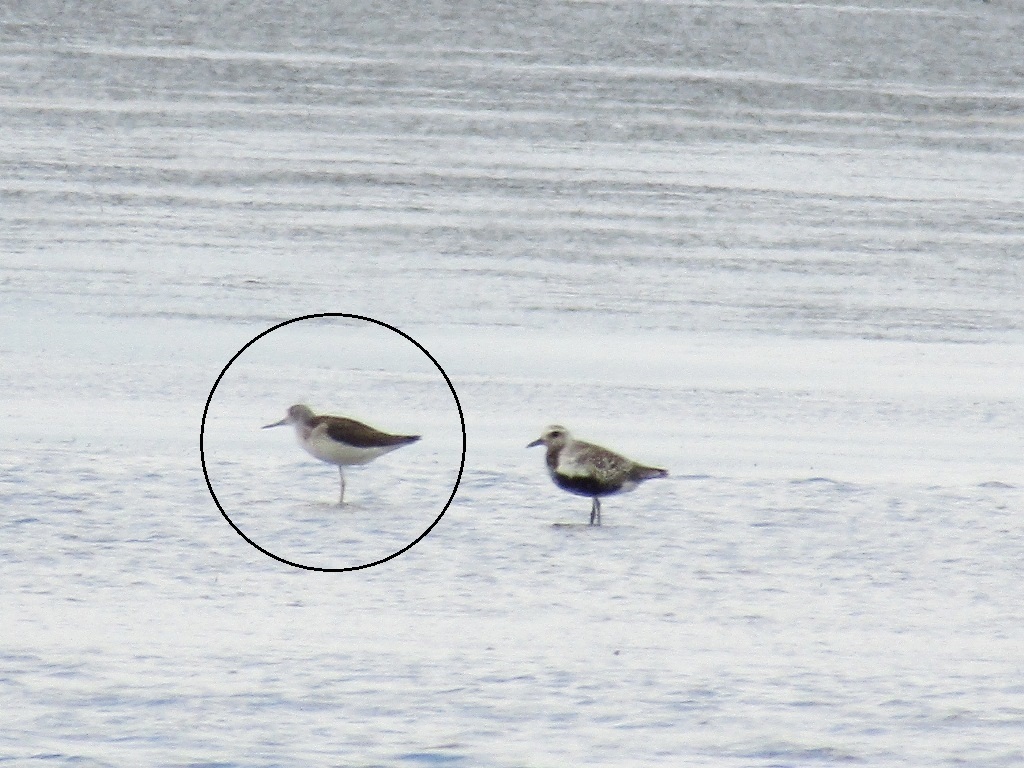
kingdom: Animalia
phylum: Chordata
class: Aves
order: Charadriiformes
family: Scolopacidae
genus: Tringa
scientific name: Tringa nebularia
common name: Common greenshank
